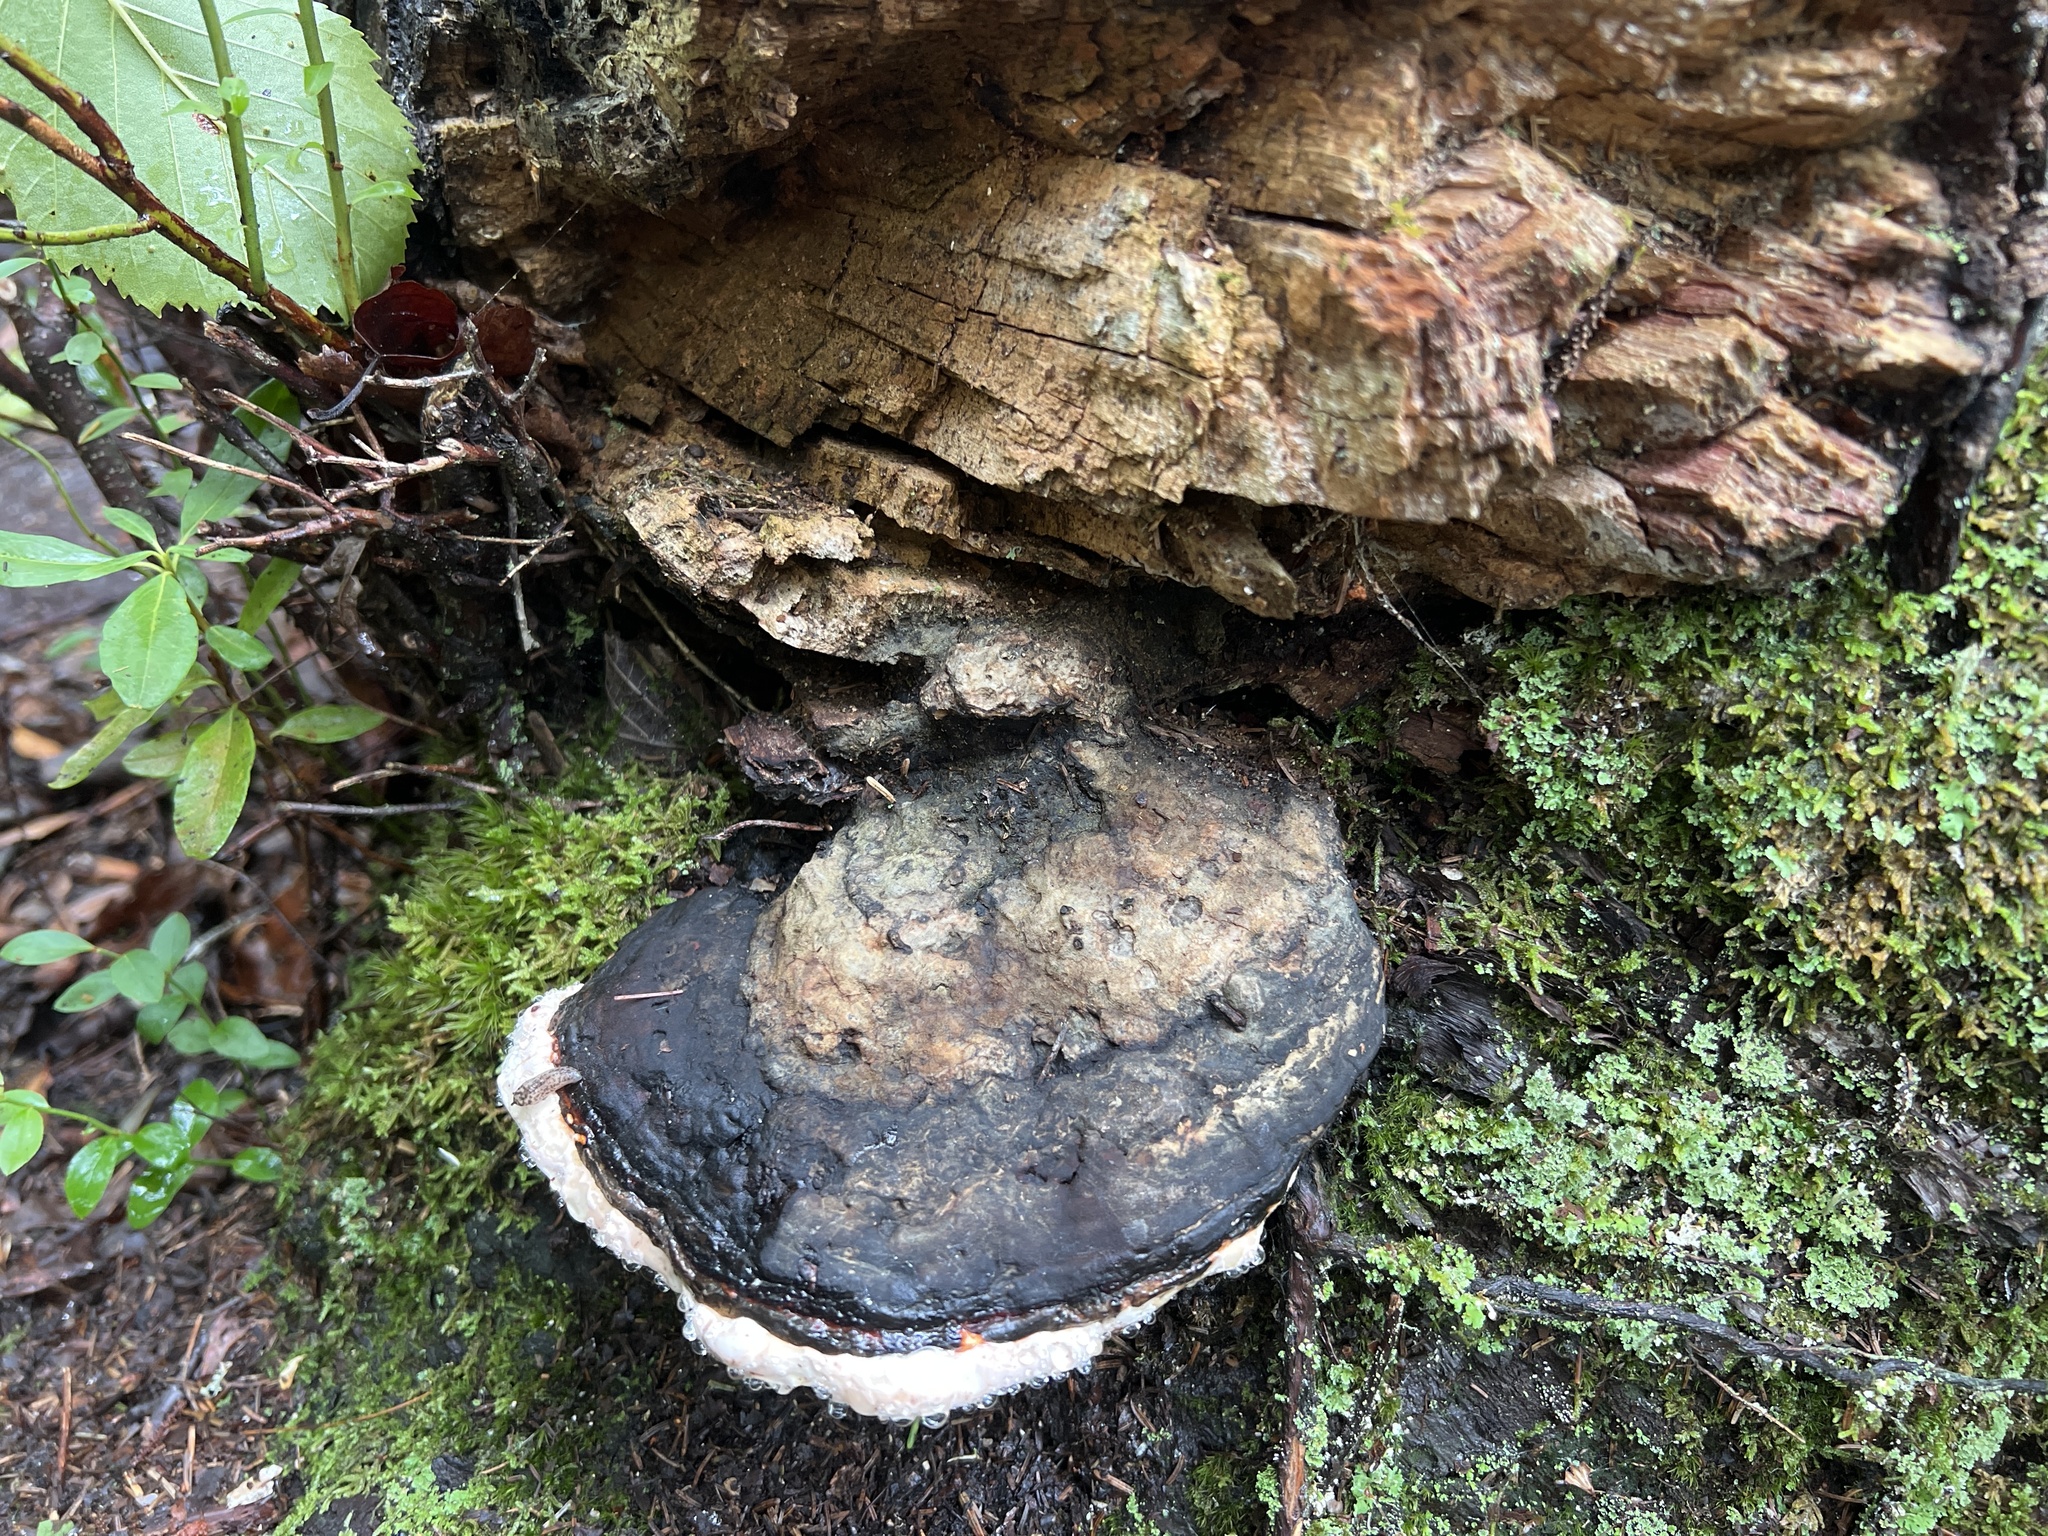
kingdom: Fungi
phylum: Basidiomycota
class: Agaricomycetes
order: Polyporales
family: Fomitopsidaceae
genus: Fomitopsis
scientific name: Fomitopsis mounceae
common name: Northern red belt
